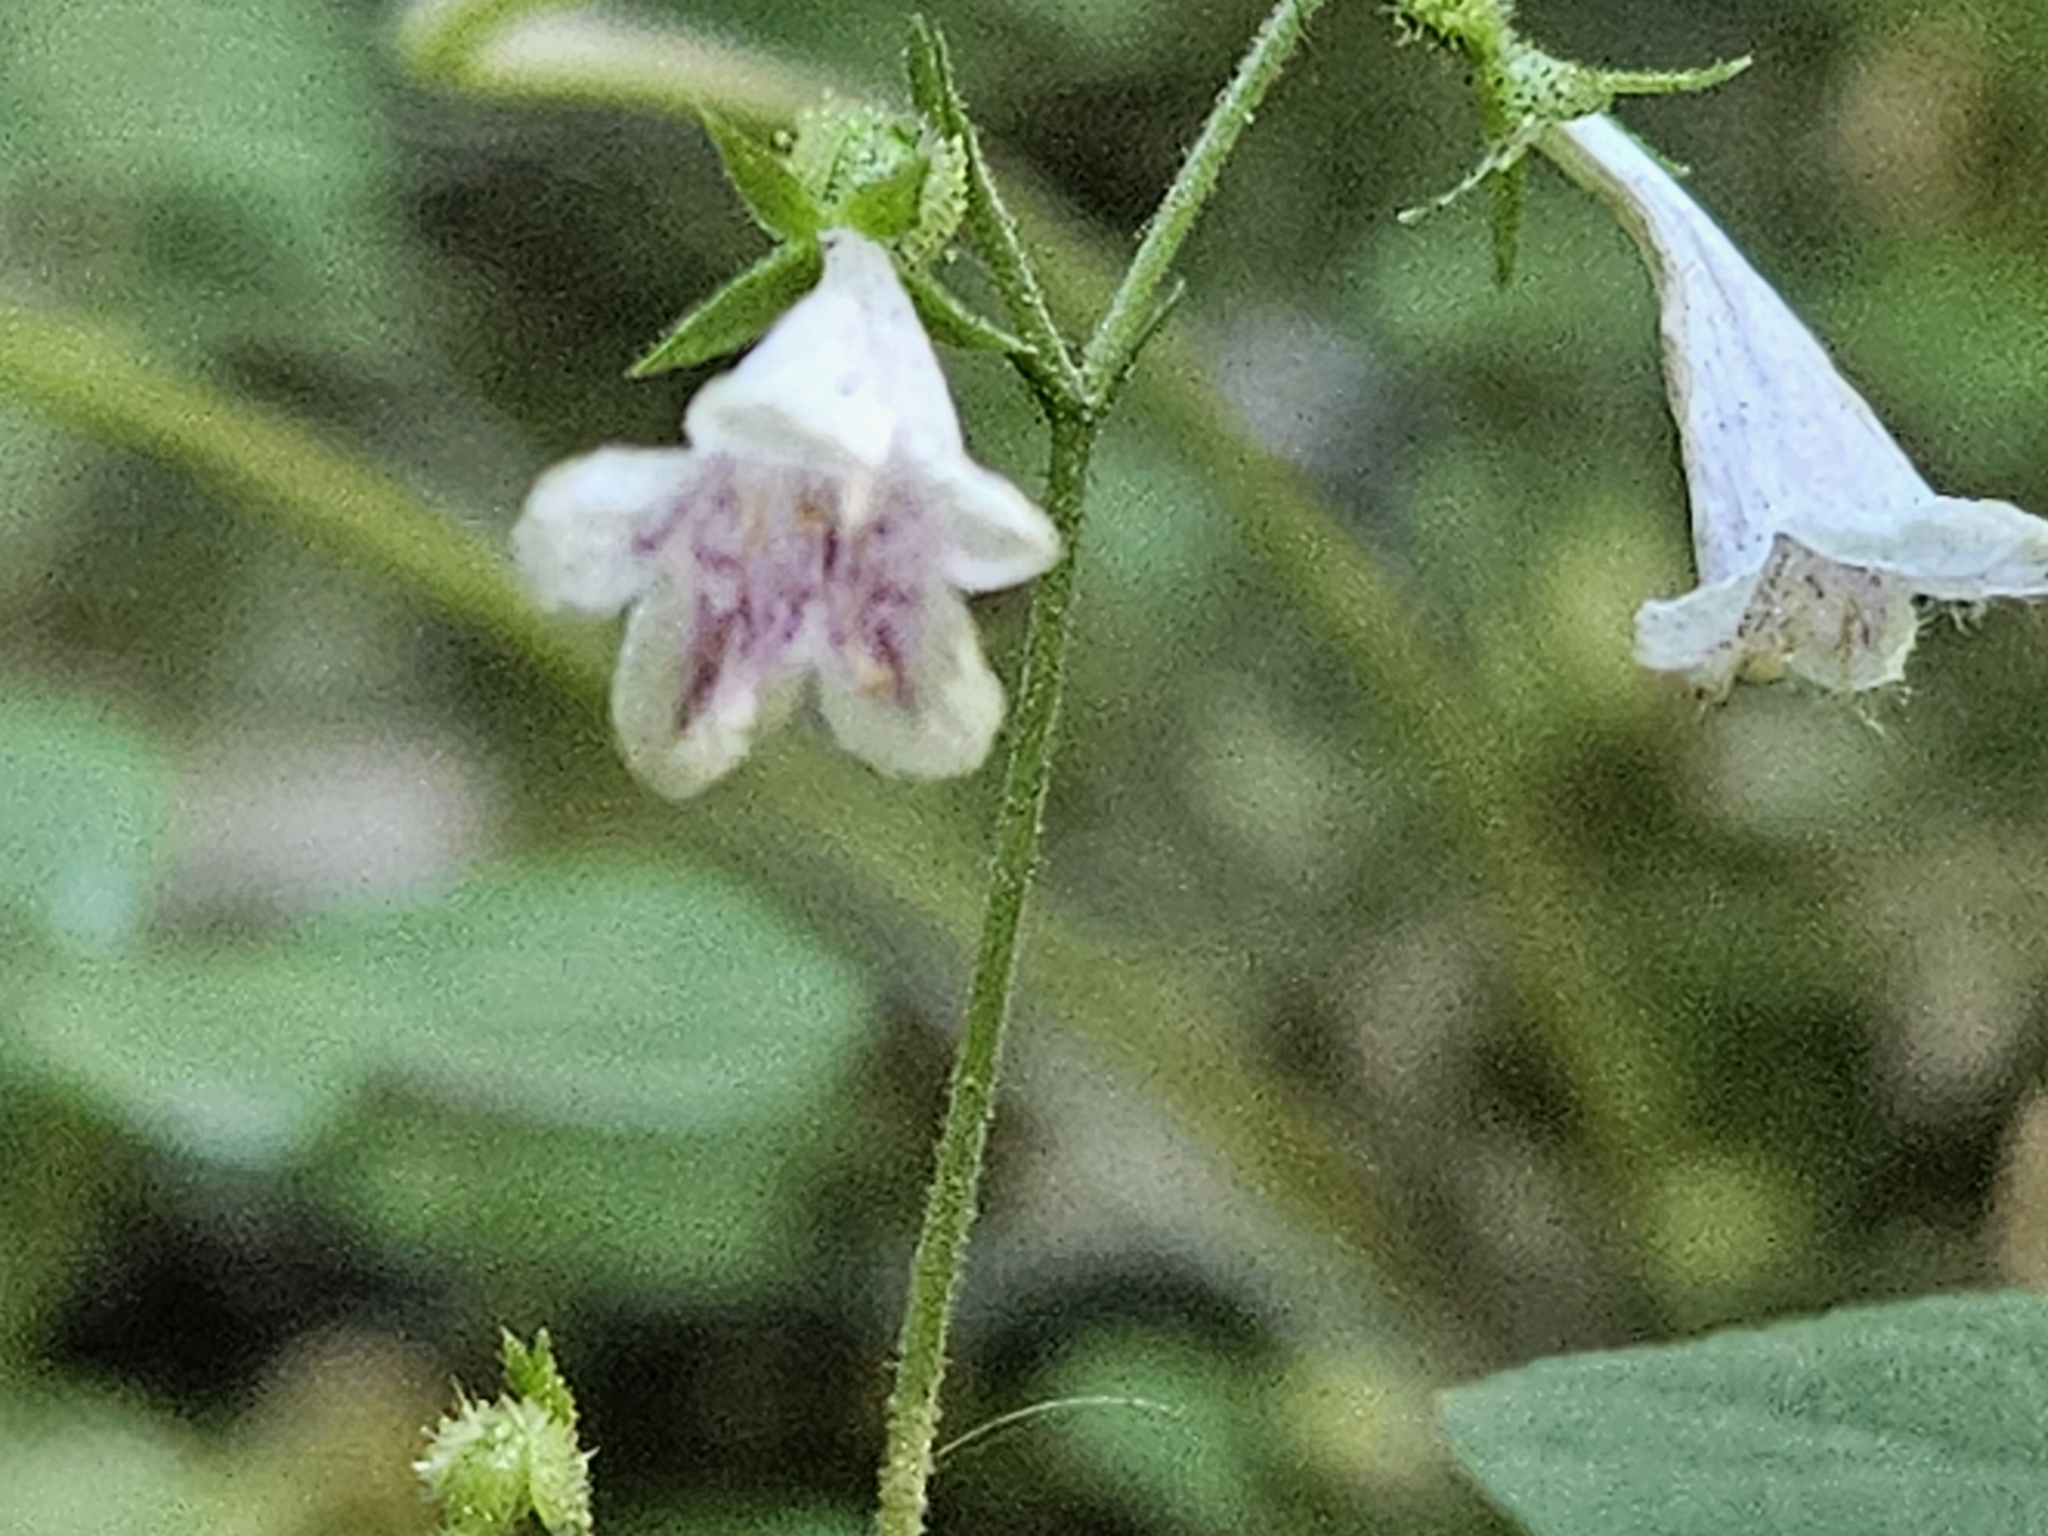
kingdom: Plantae
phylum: Tracheophyta
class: Magnoliopsida
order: Dipsacales
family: Caprifoliaceae
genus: Linnaea
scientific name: Linnaea borealis
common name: Twinflower
